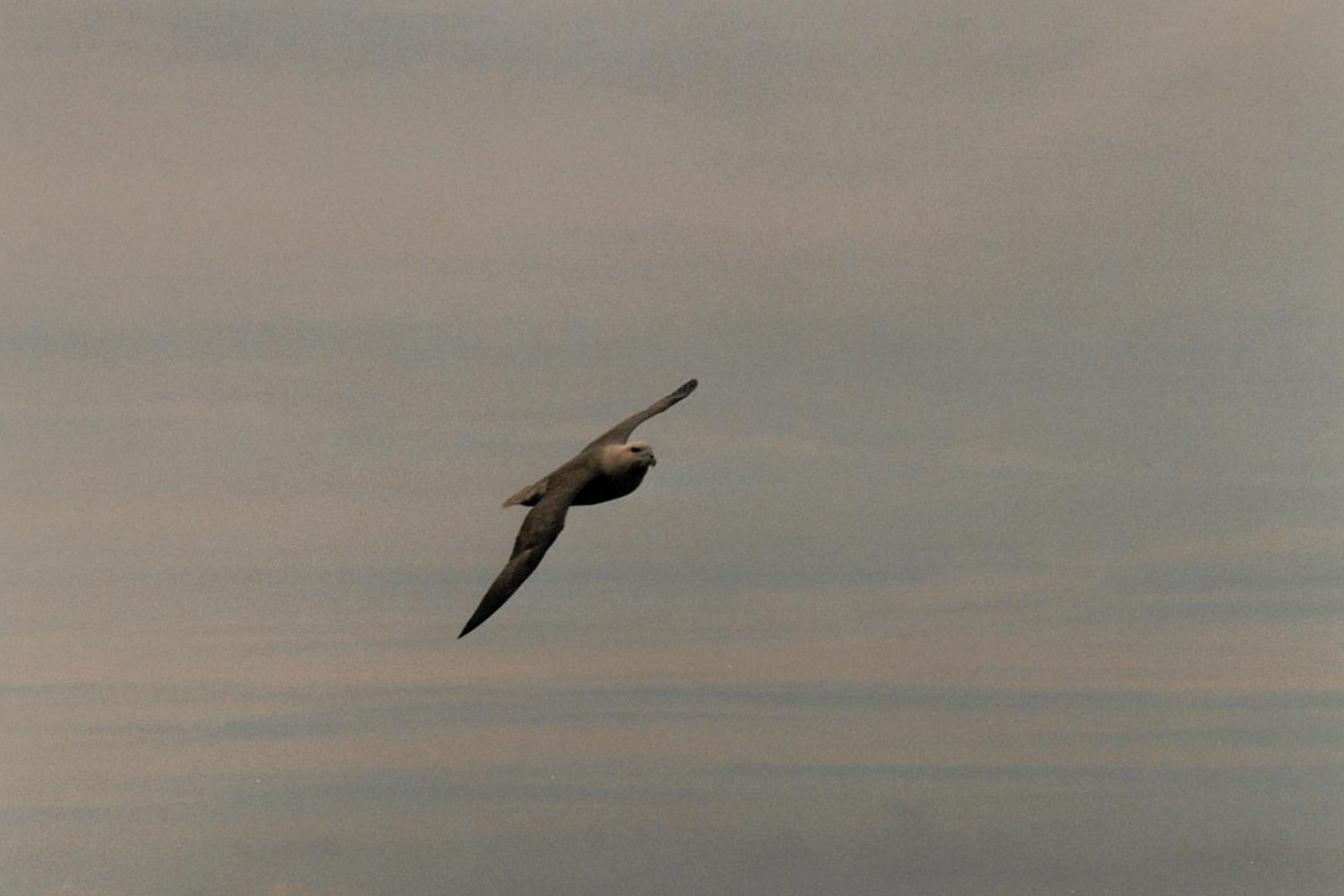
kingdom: Animalia
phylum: Chordata
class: Aves
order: Procellariiformes
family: Procellariidae
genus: Fulmarus
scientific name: Fulmarus glacialis
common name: Northern fulmar
